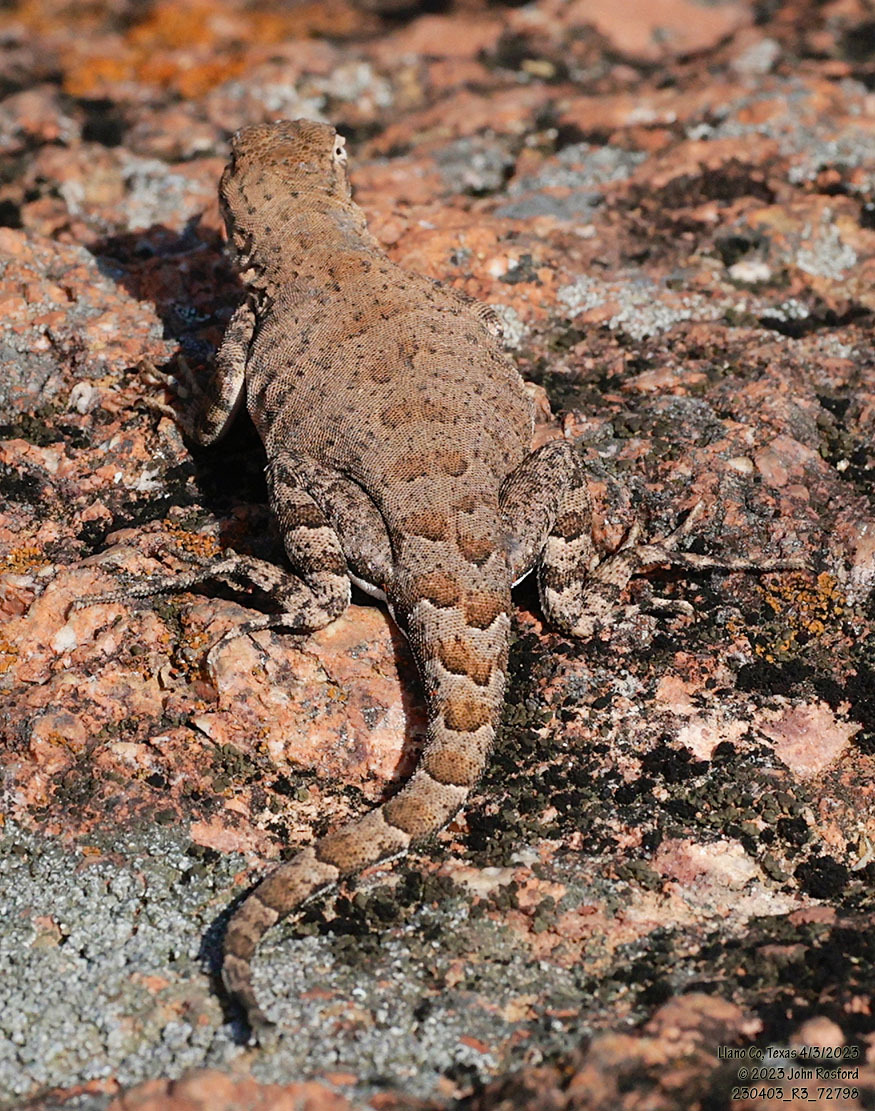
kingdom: Animalia
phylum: Chordata
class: Squamata
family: Phrynosomatidae
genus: Cophosaurus
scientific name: Cophosaurus texanus
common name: Greater earless lizard
